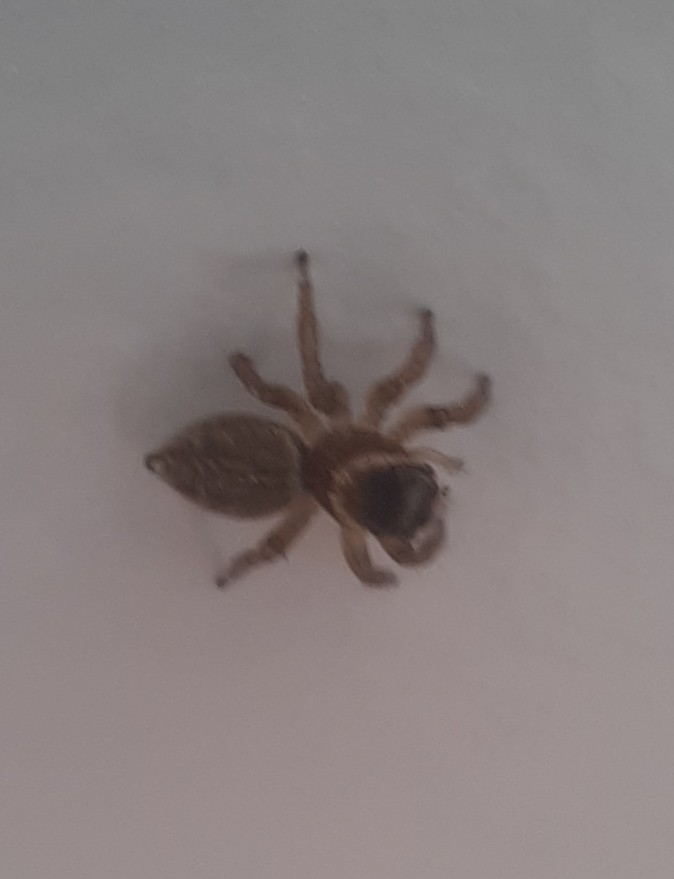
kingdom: Animalia
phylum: Arthropoda
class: Arachnida
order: Araneae
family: Salticidae
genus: Maratus
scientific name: Maratus griseus
